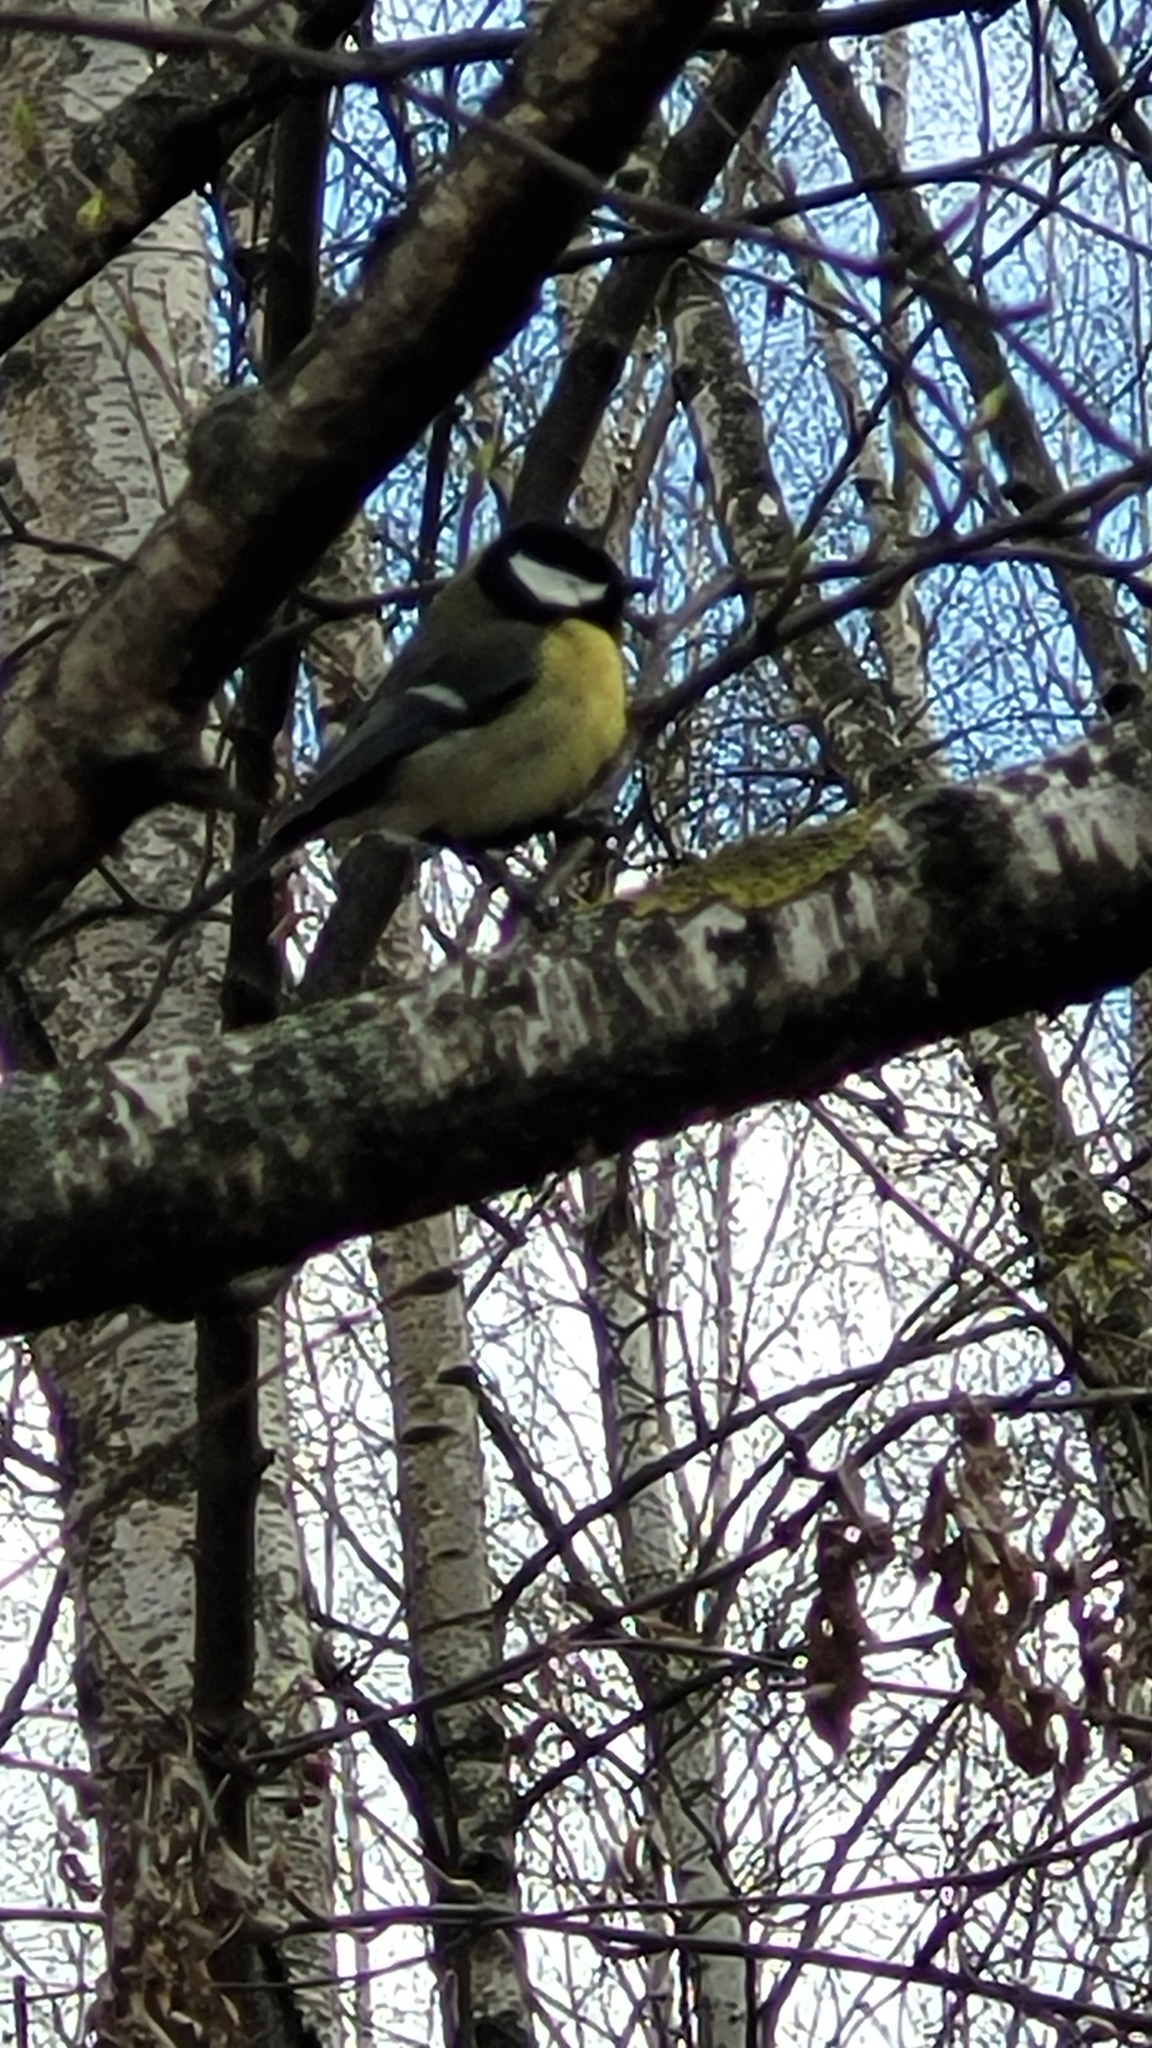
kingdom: Animalia
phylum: Chordata
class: Aves
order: Passeriformes
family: Paridae
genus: Parus
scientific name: Parus major
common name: Great tit
